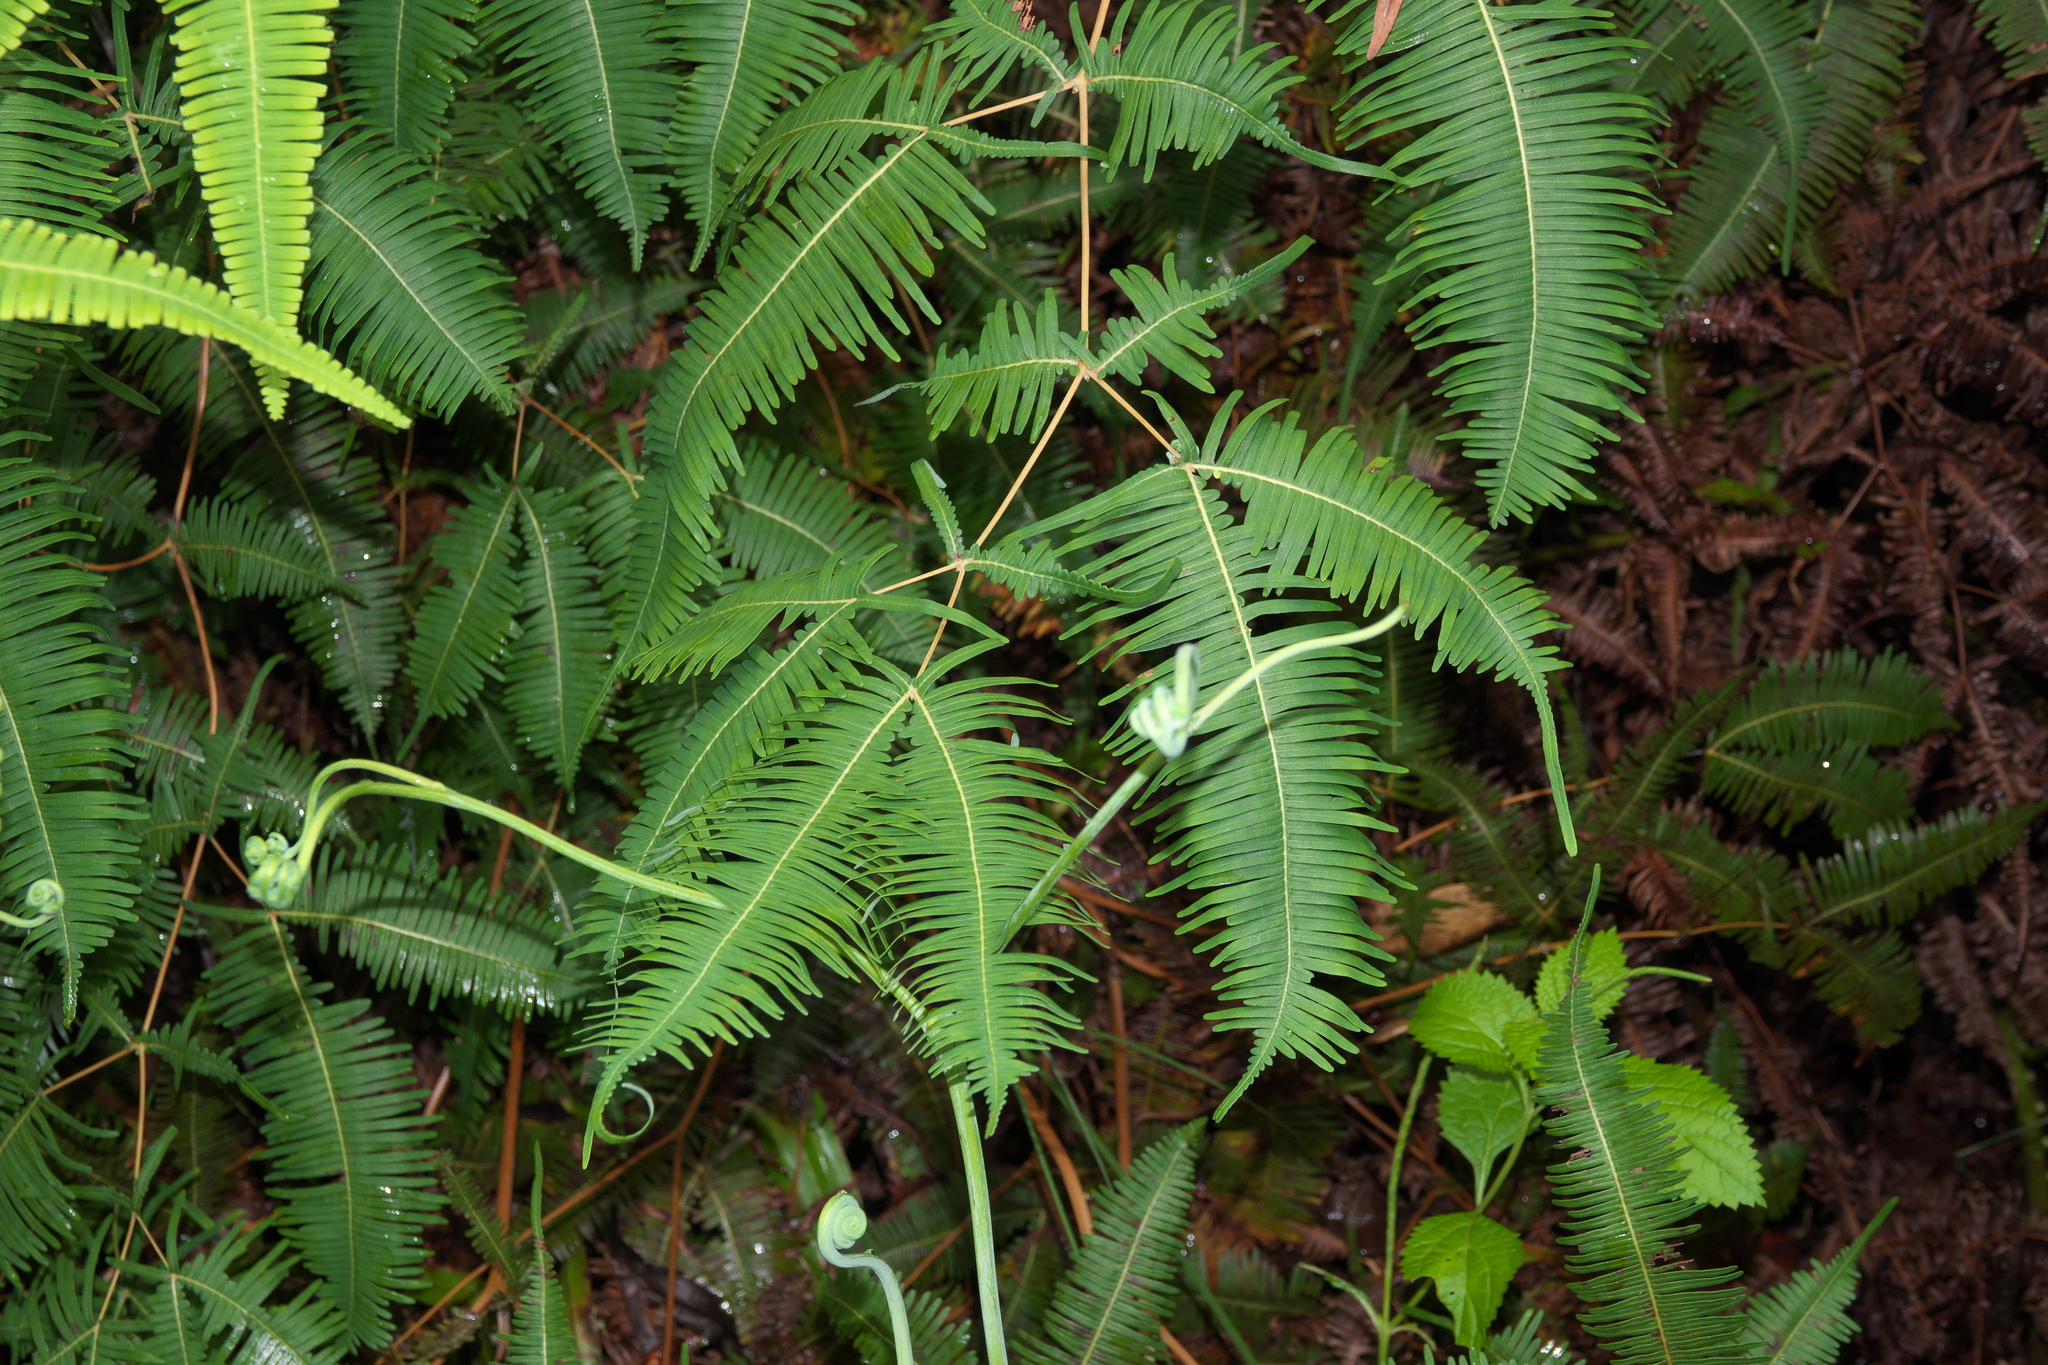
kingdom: Plantae
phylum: Tracheophyta
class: Polypodiopsida
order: Gleicheniales
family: Gleicheniaceae
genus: Dicranopteris
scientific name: Dicranopteris linearis
